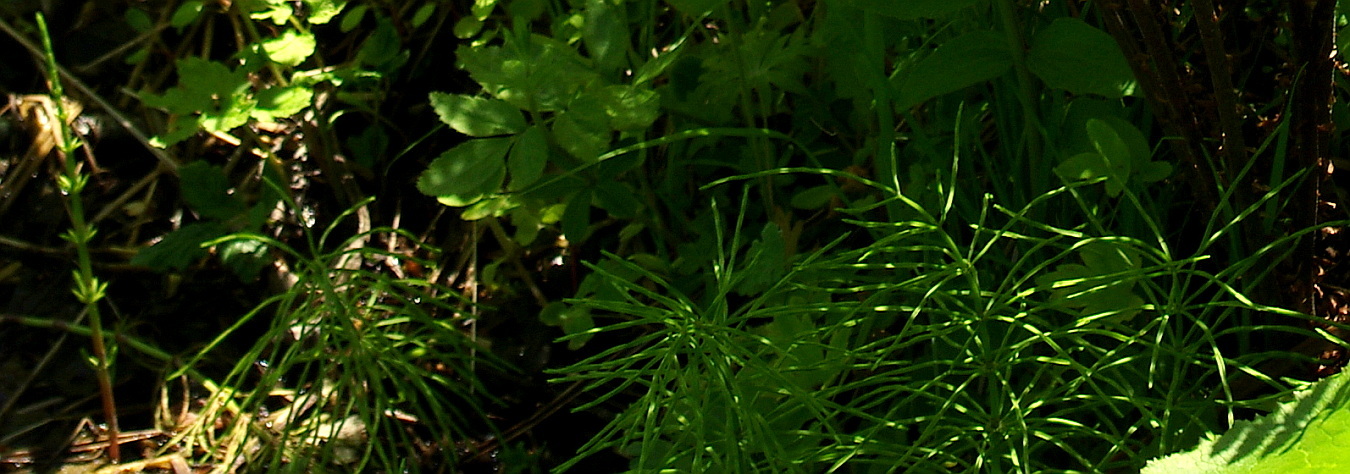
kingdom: Plantae
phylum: Tracheophyta
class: Polypodiopsida
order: Equisetales
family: Equisetaceae
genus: Equisetum
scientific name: Equisetum pratense
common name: Meadow horsetail
